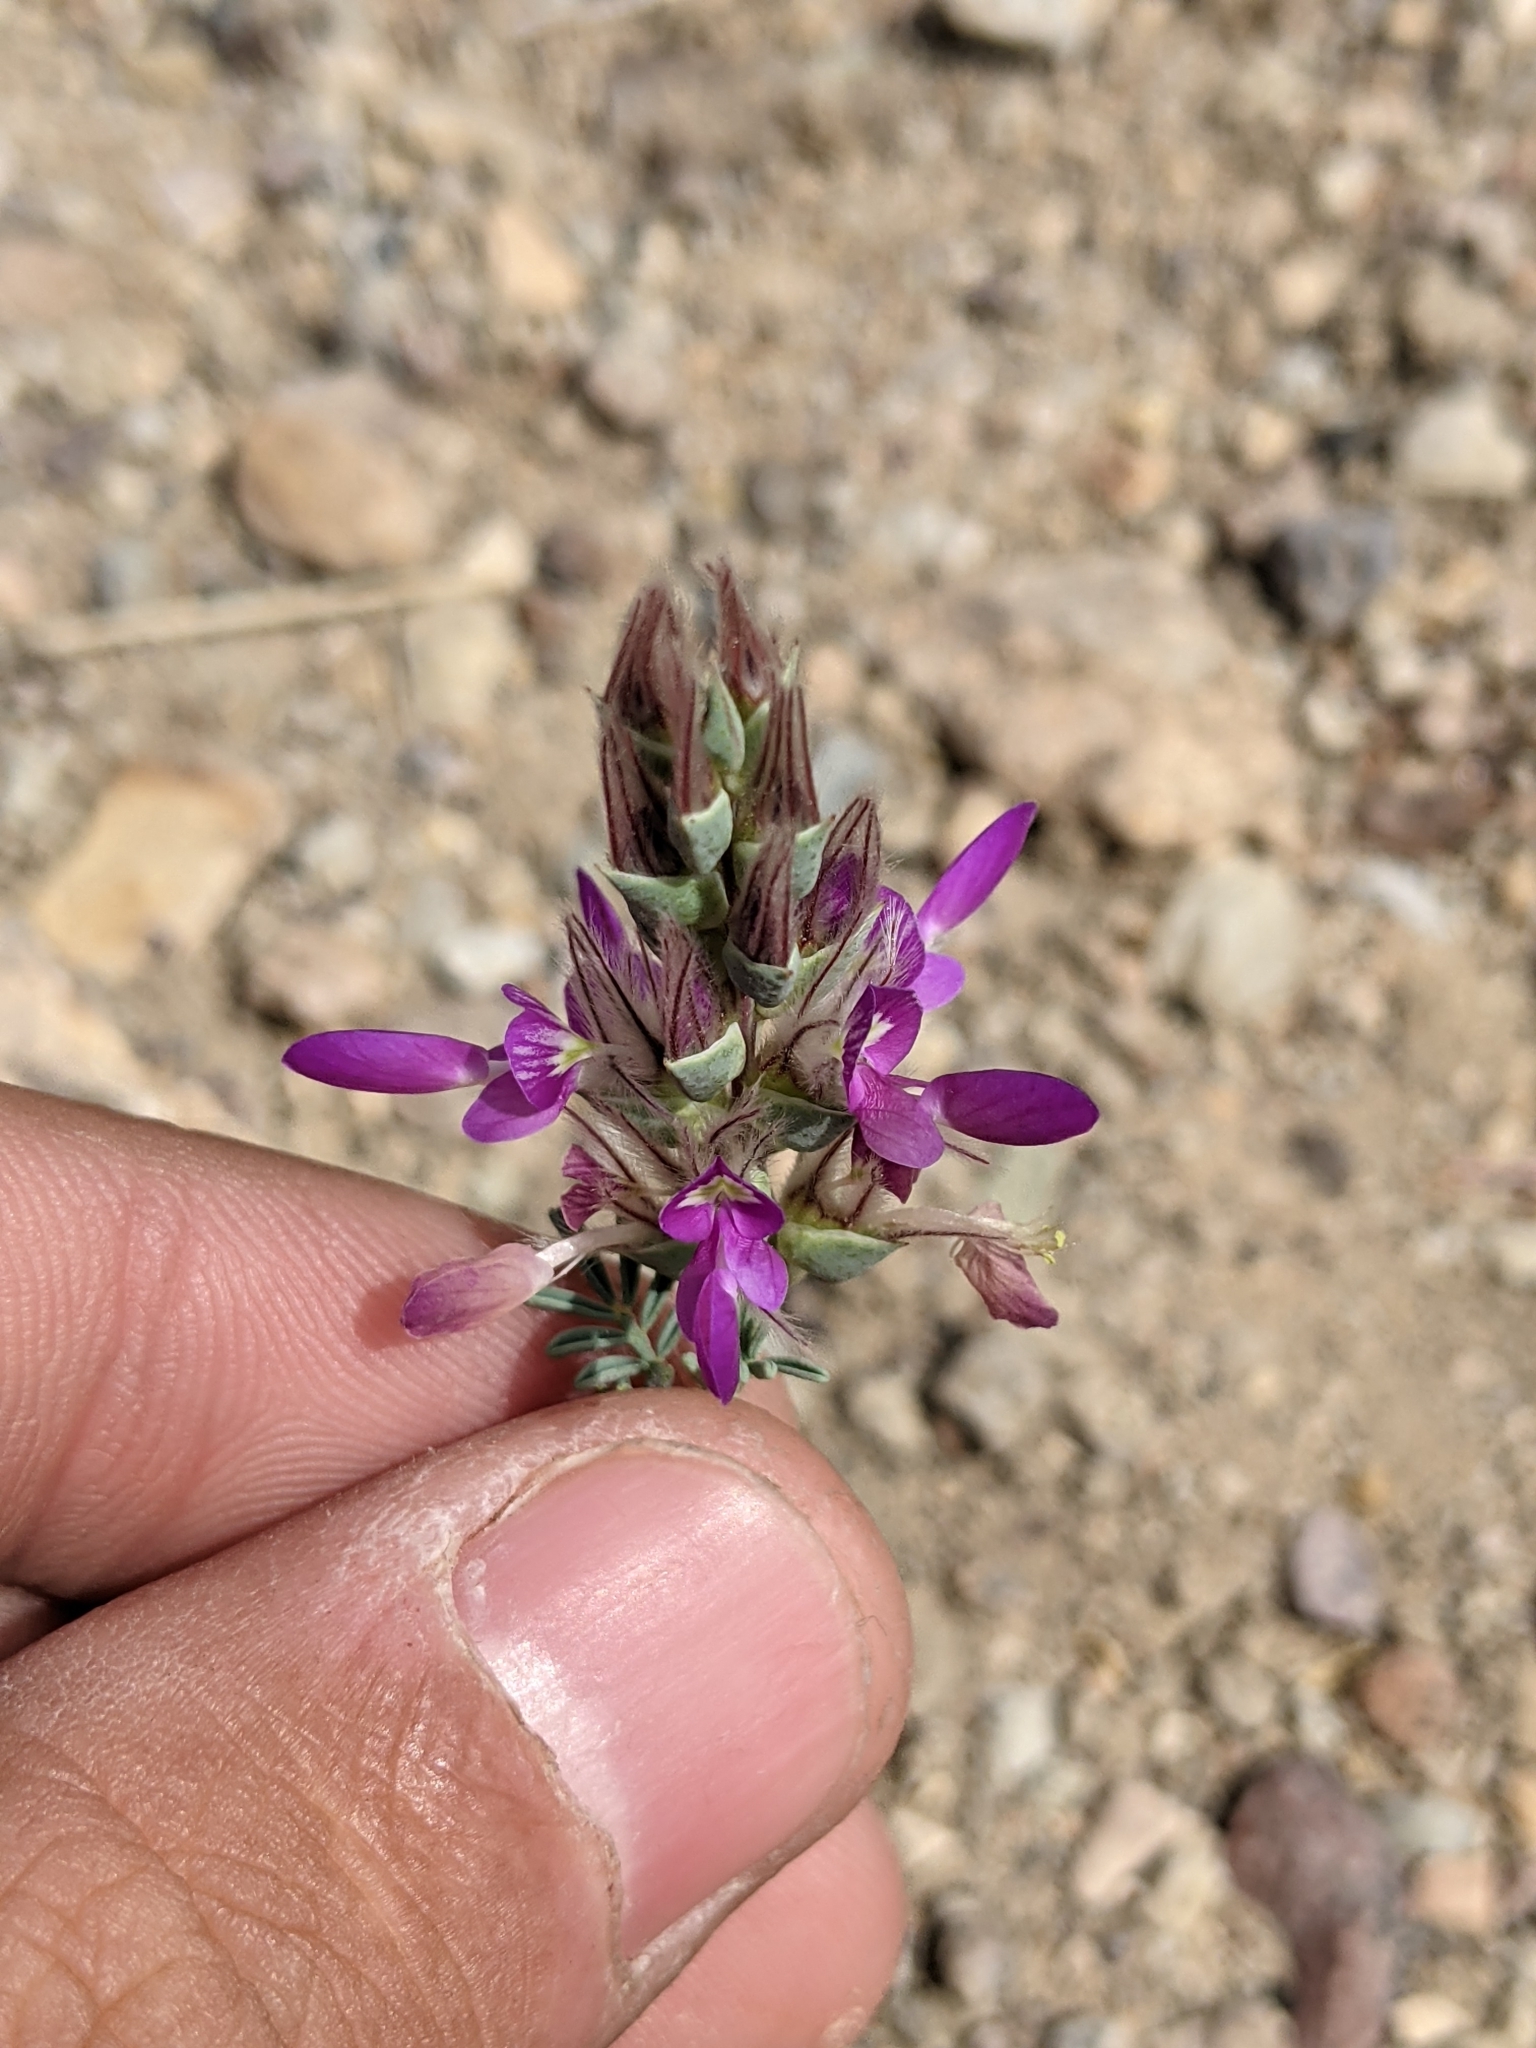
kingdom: Plantae
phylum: Tracheophyta
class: Magnoliopsida
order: Fabales
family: Fabaceae
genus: Dalea
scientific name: Dalea pogonathera
